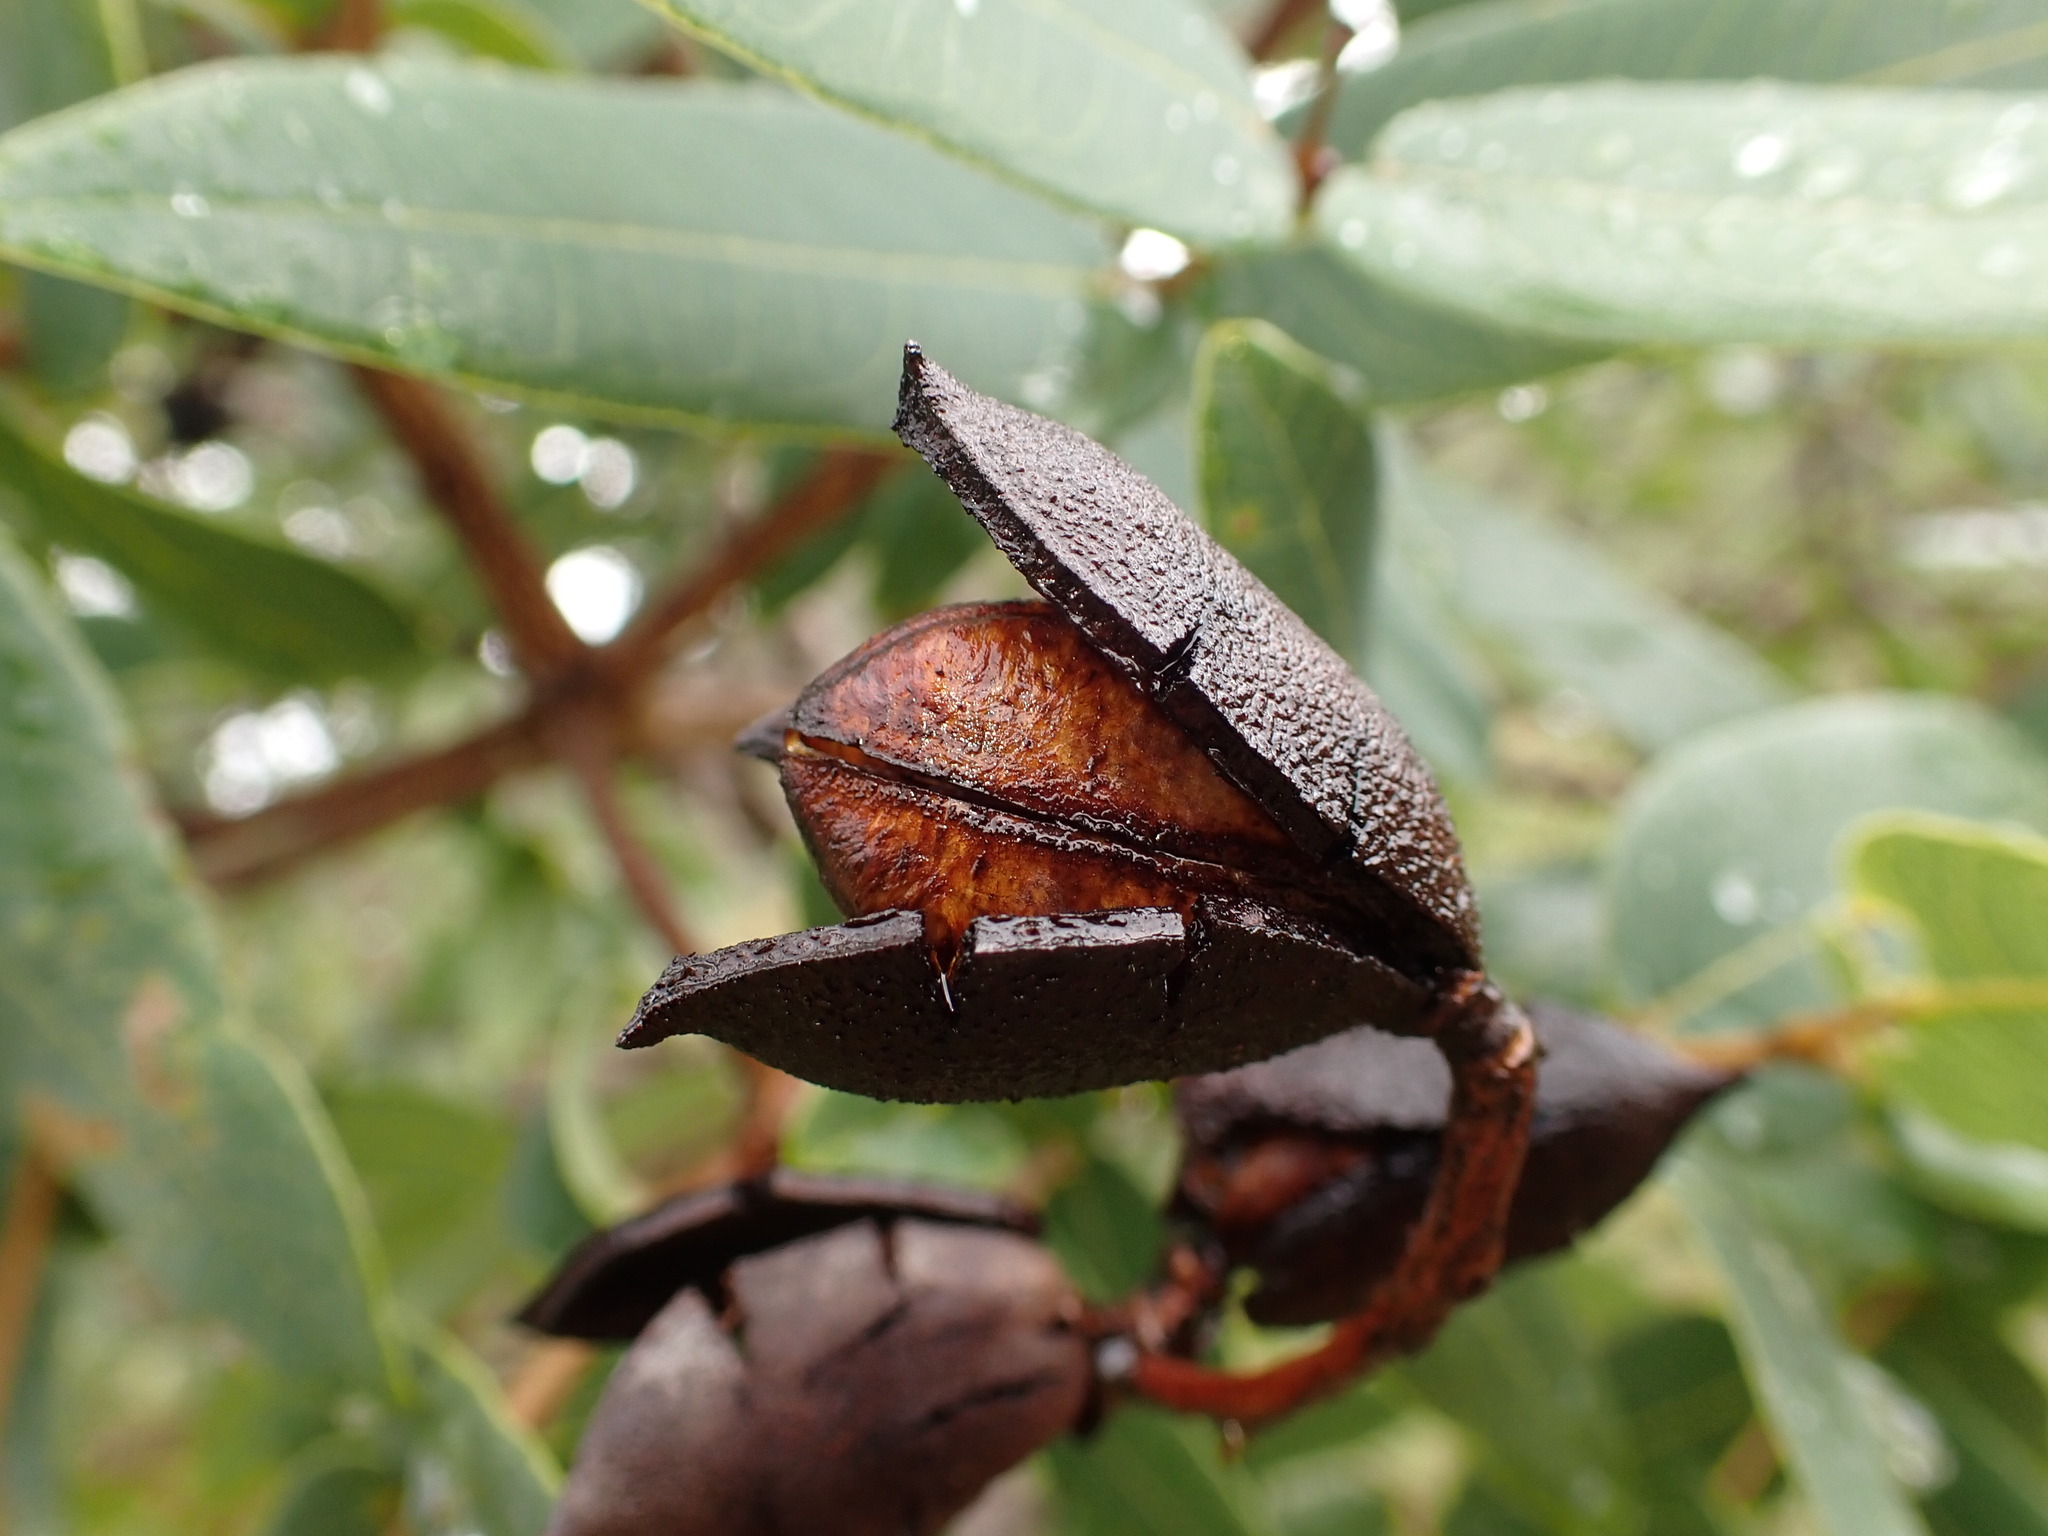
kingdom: Plantae
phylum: Tracheophyta
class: Magnoliopsida
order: Myrtales
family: Vochysiaceae
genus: Qualea
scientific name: Qualea cordata
